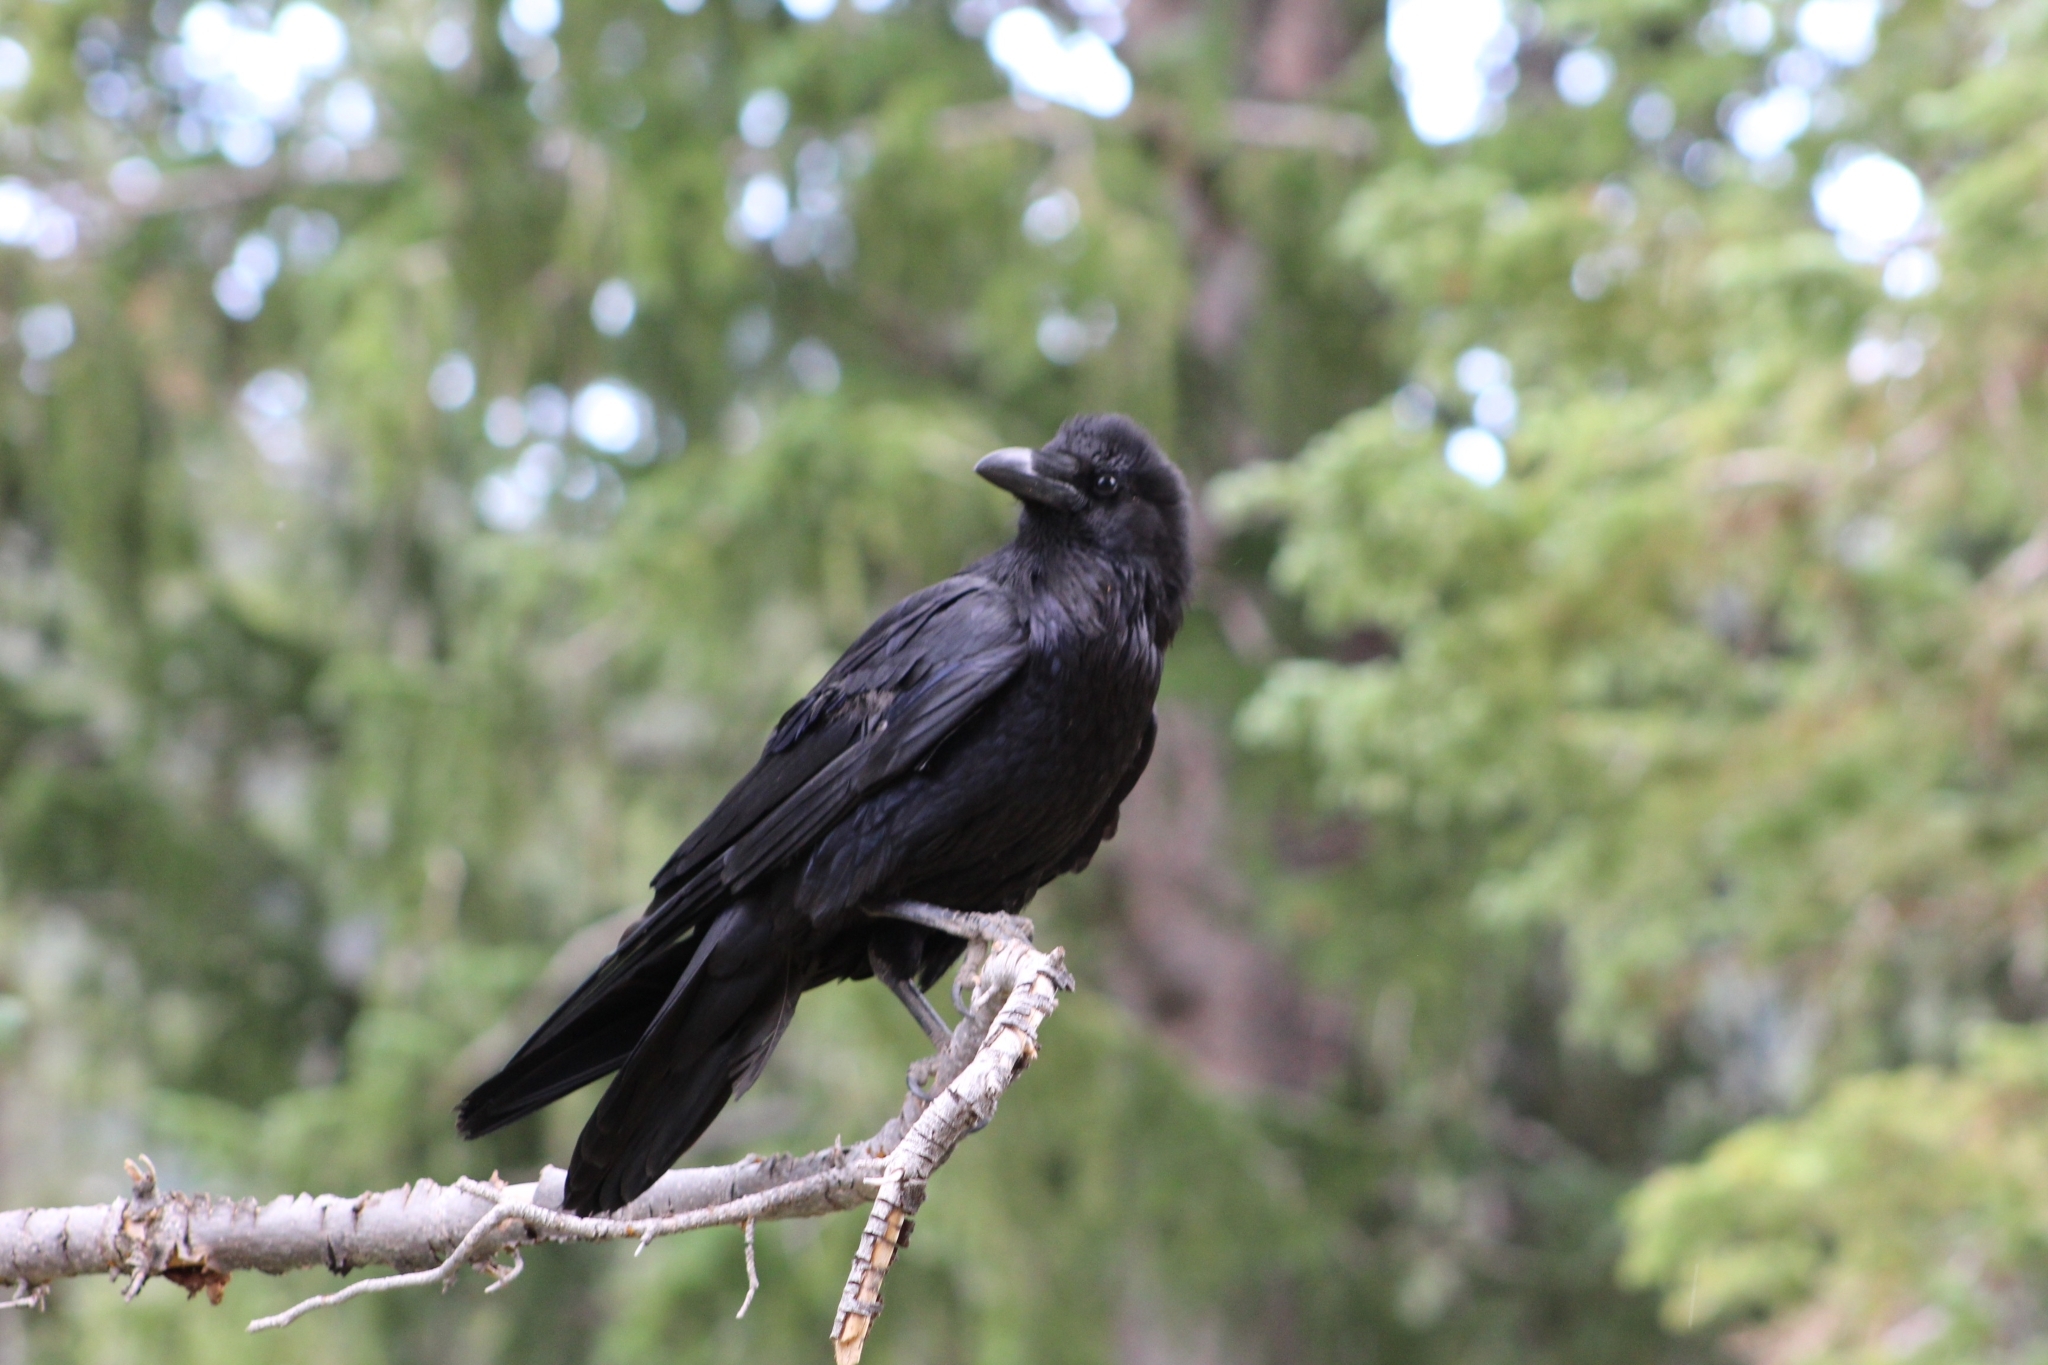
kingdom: Animalia
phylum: Chordata
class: Aves
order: Passeriformes
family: Corvidae
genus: Corvus
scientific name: Corvus corax
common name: Common raven
